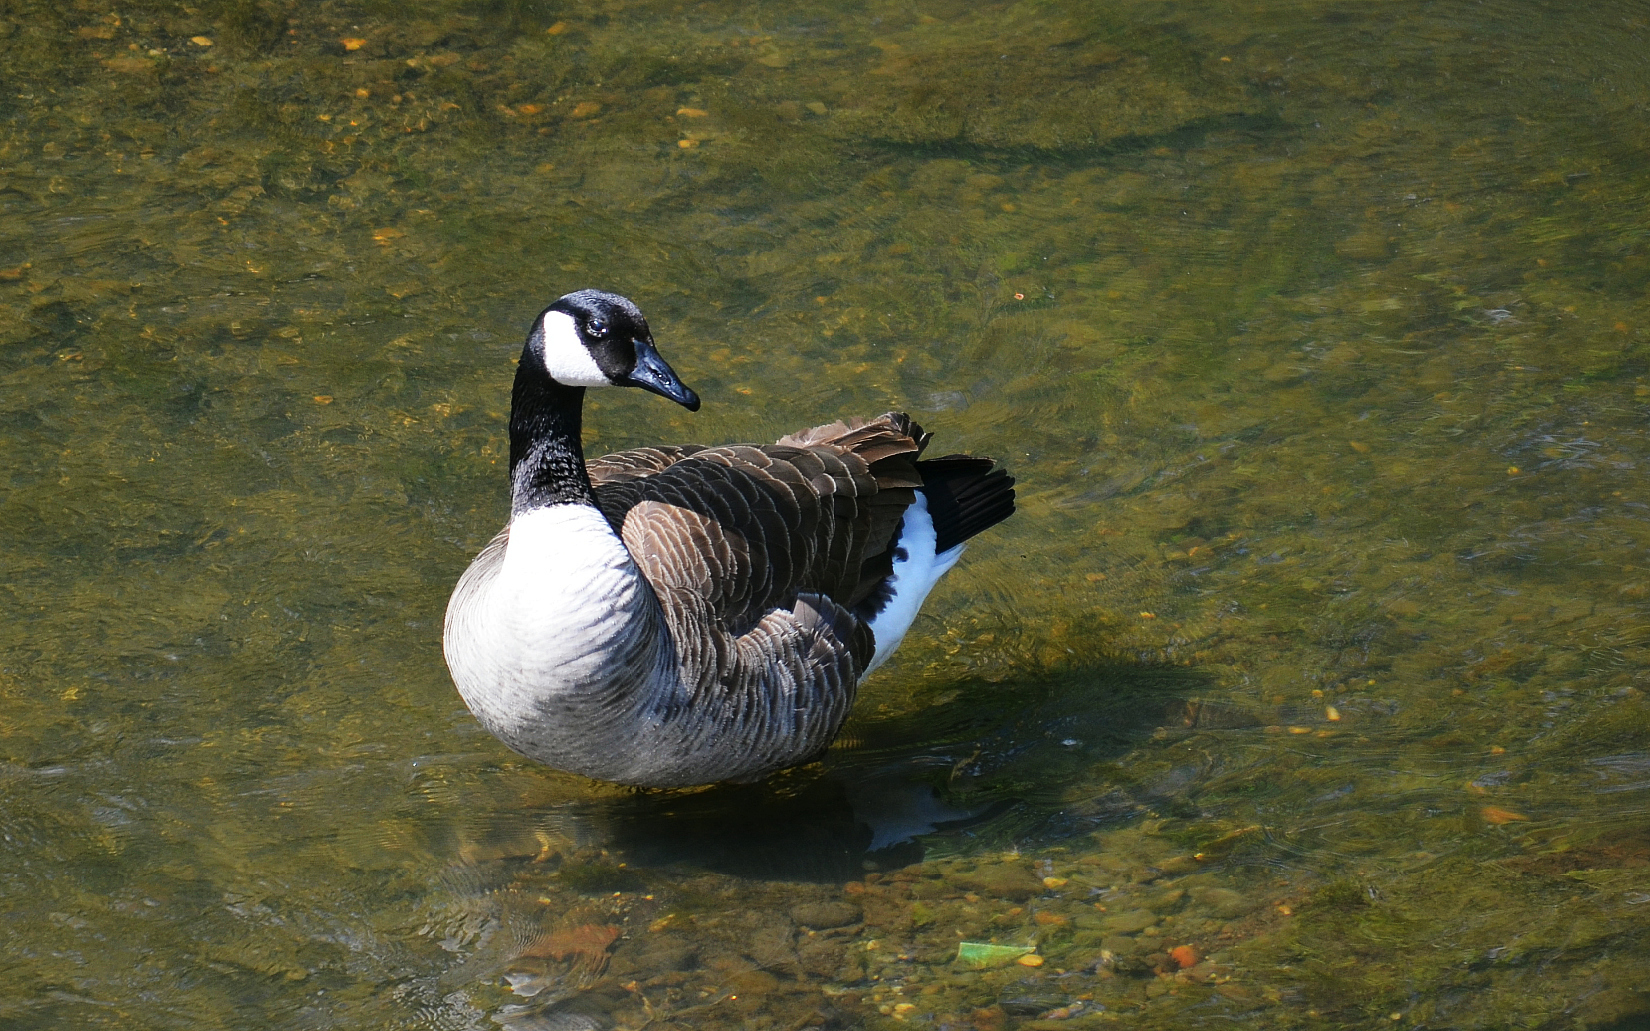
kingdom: Animalia
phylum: Chordata
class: Aves
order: Anseriformes
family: Anatidae
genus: Branta
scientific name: Branta canadensis
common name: Canada goose
